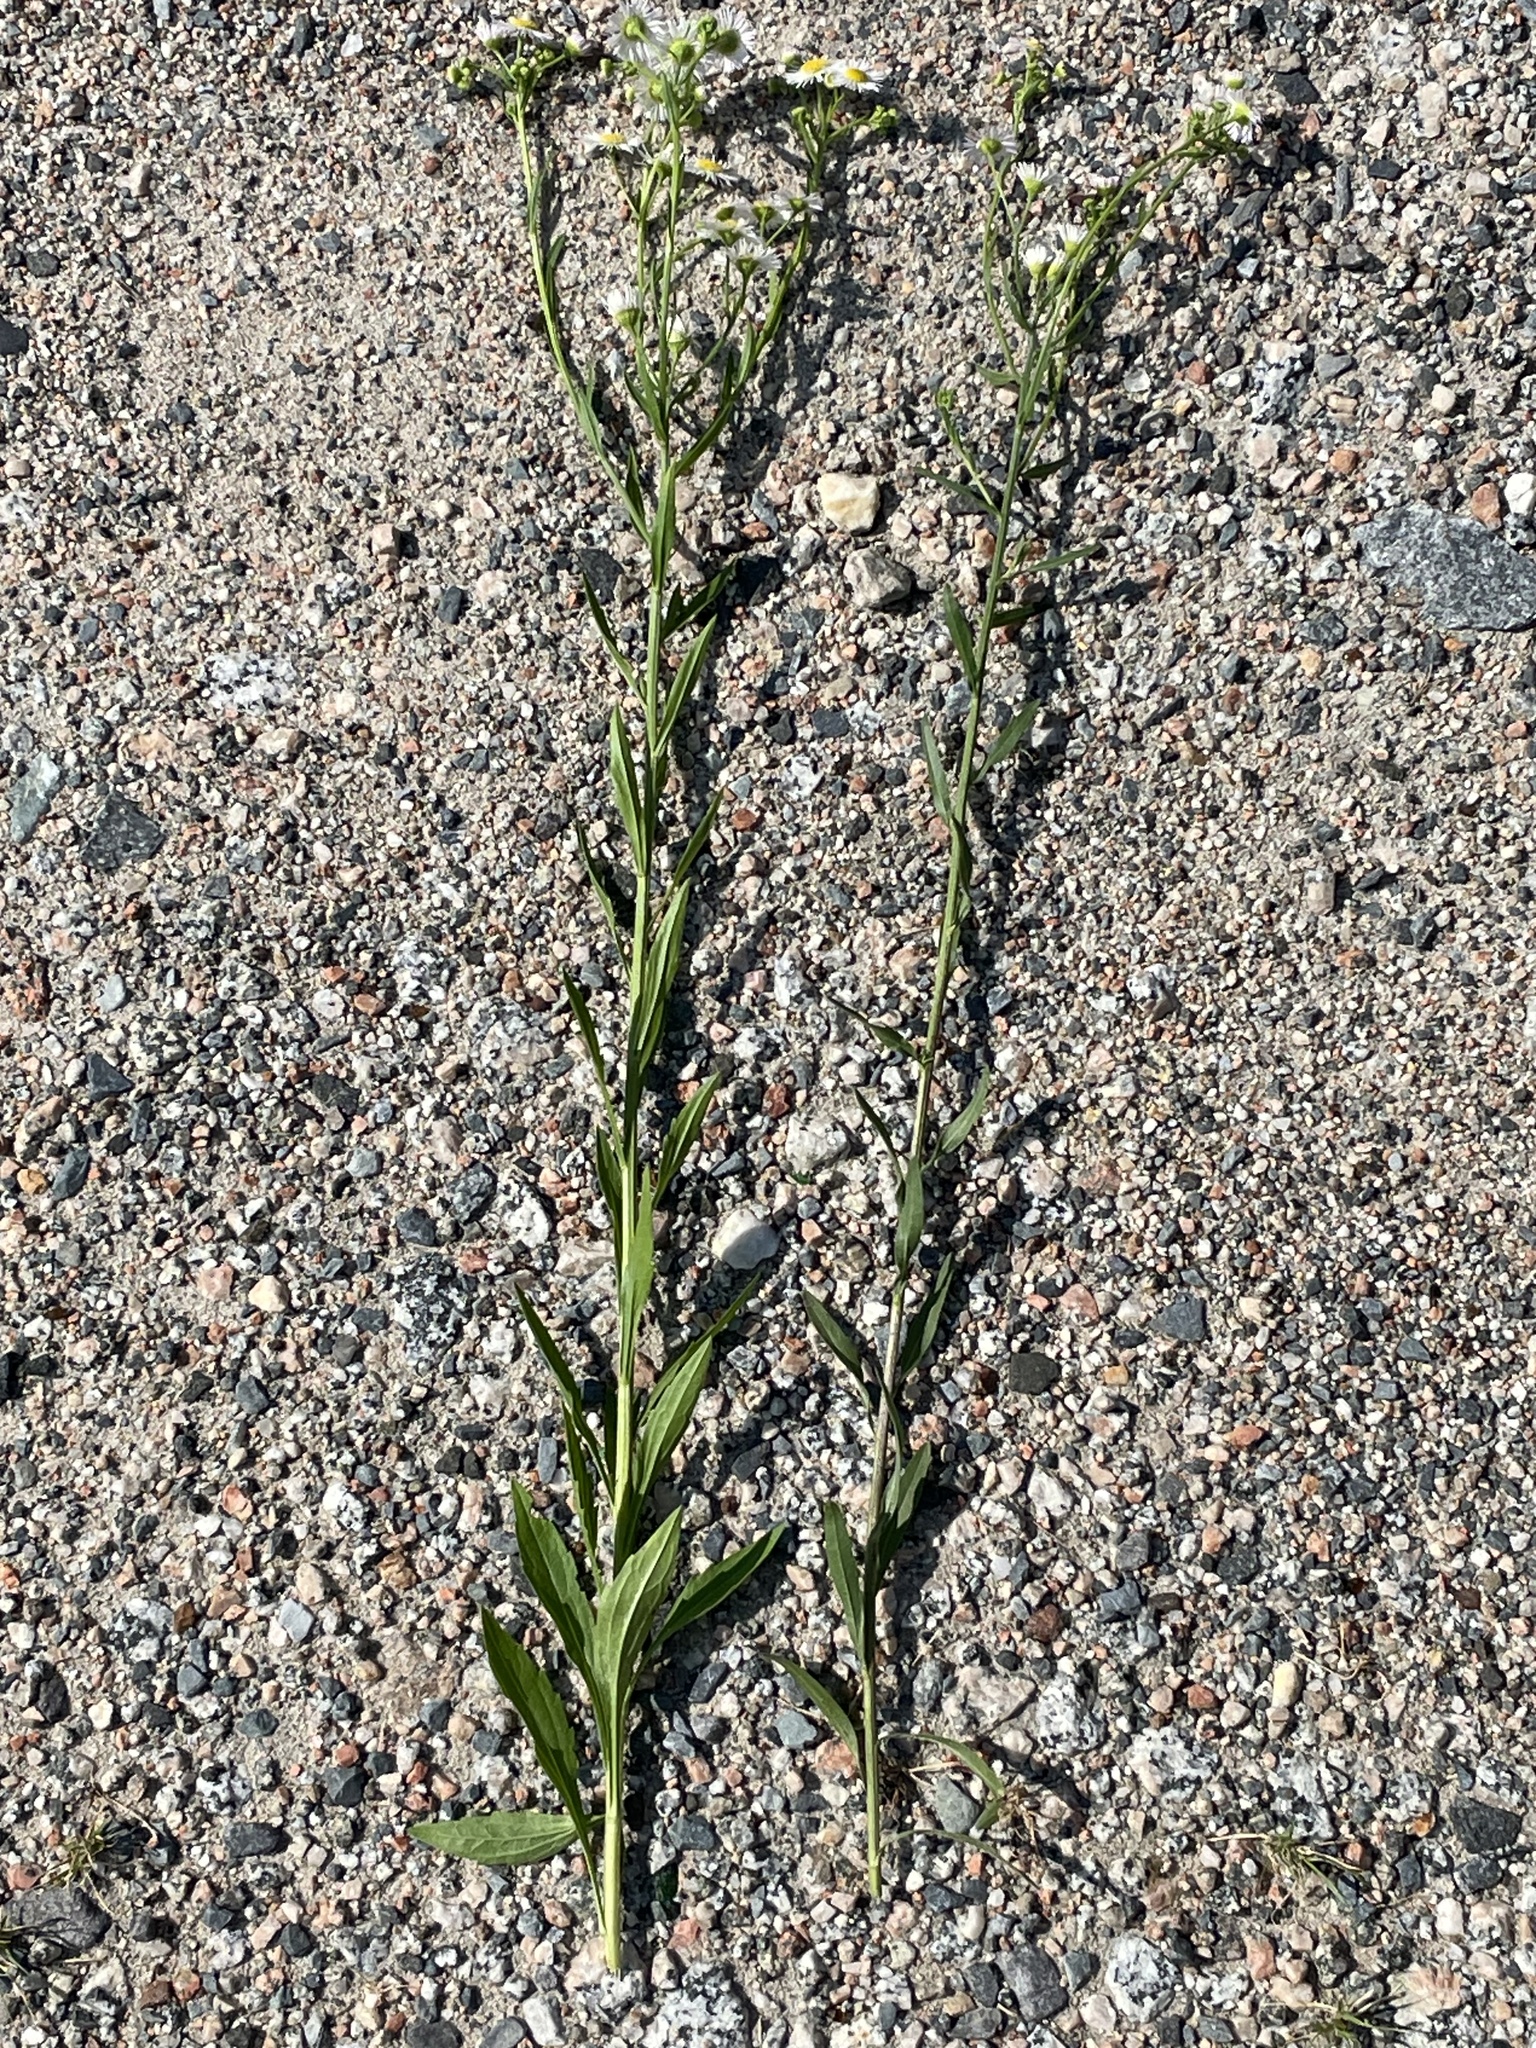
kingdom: Plantae
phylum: Tracheophyta
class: Magnoliopsida
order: Asterales
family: Asteraceae
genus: Erigeron
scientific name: Erigeron strigosus
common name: Common eastern fleabane
